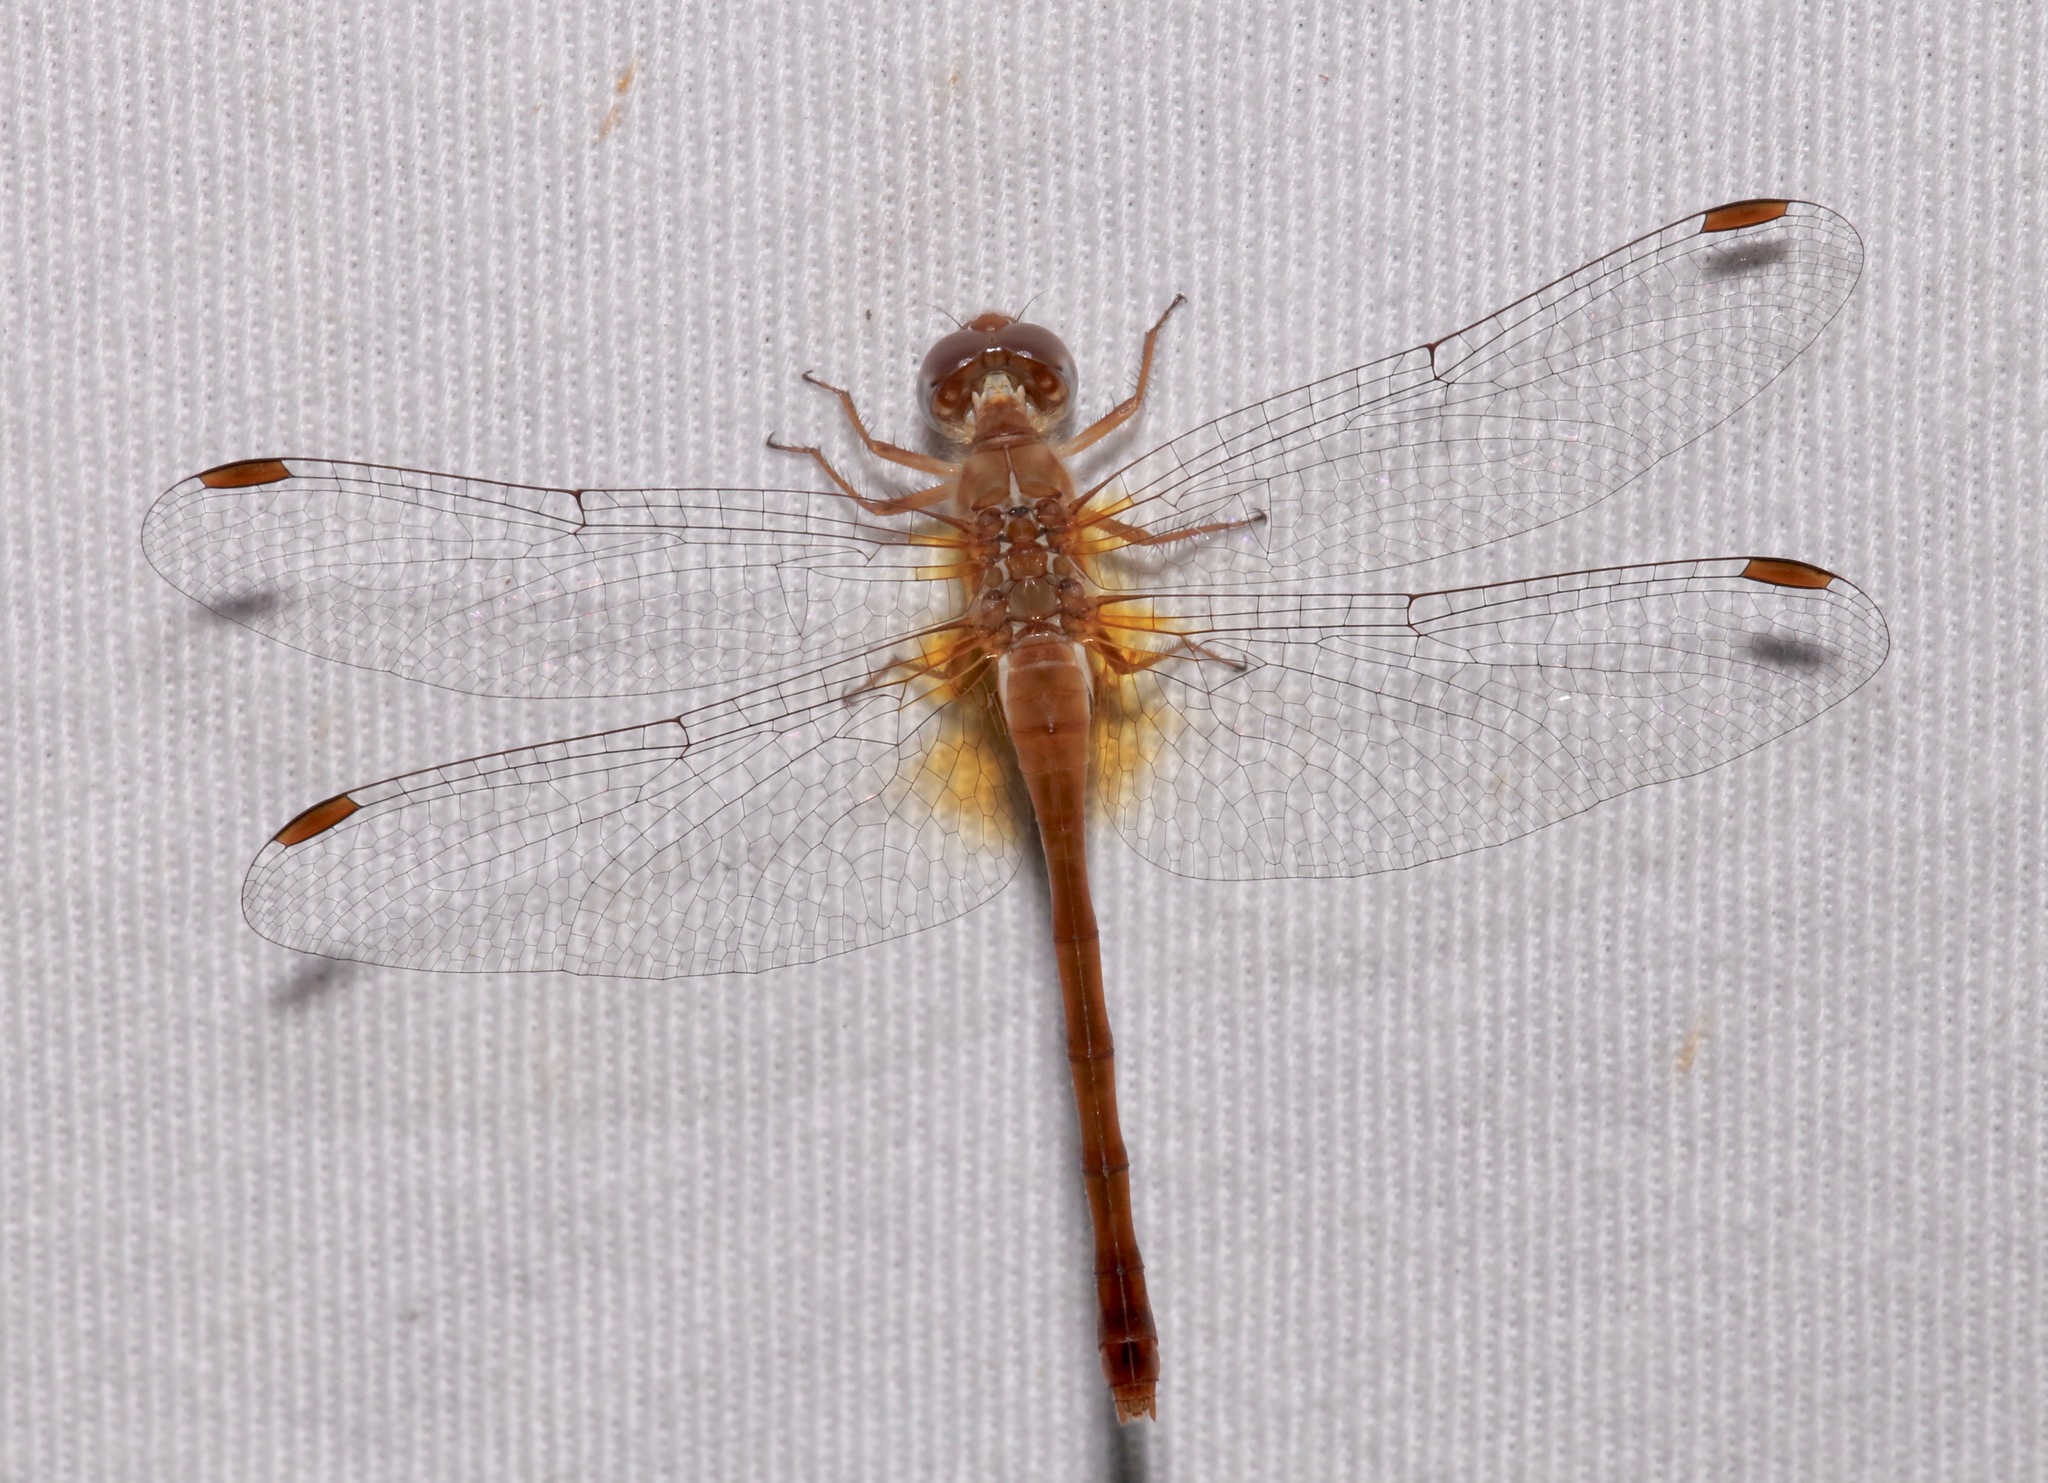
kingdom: Animalia
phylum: Arthropoda
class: Insecta
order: Odonata
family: Libellulidae
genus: Sympetrum
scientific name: Sympetrum vicinum
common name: Autumn meadowhawk
